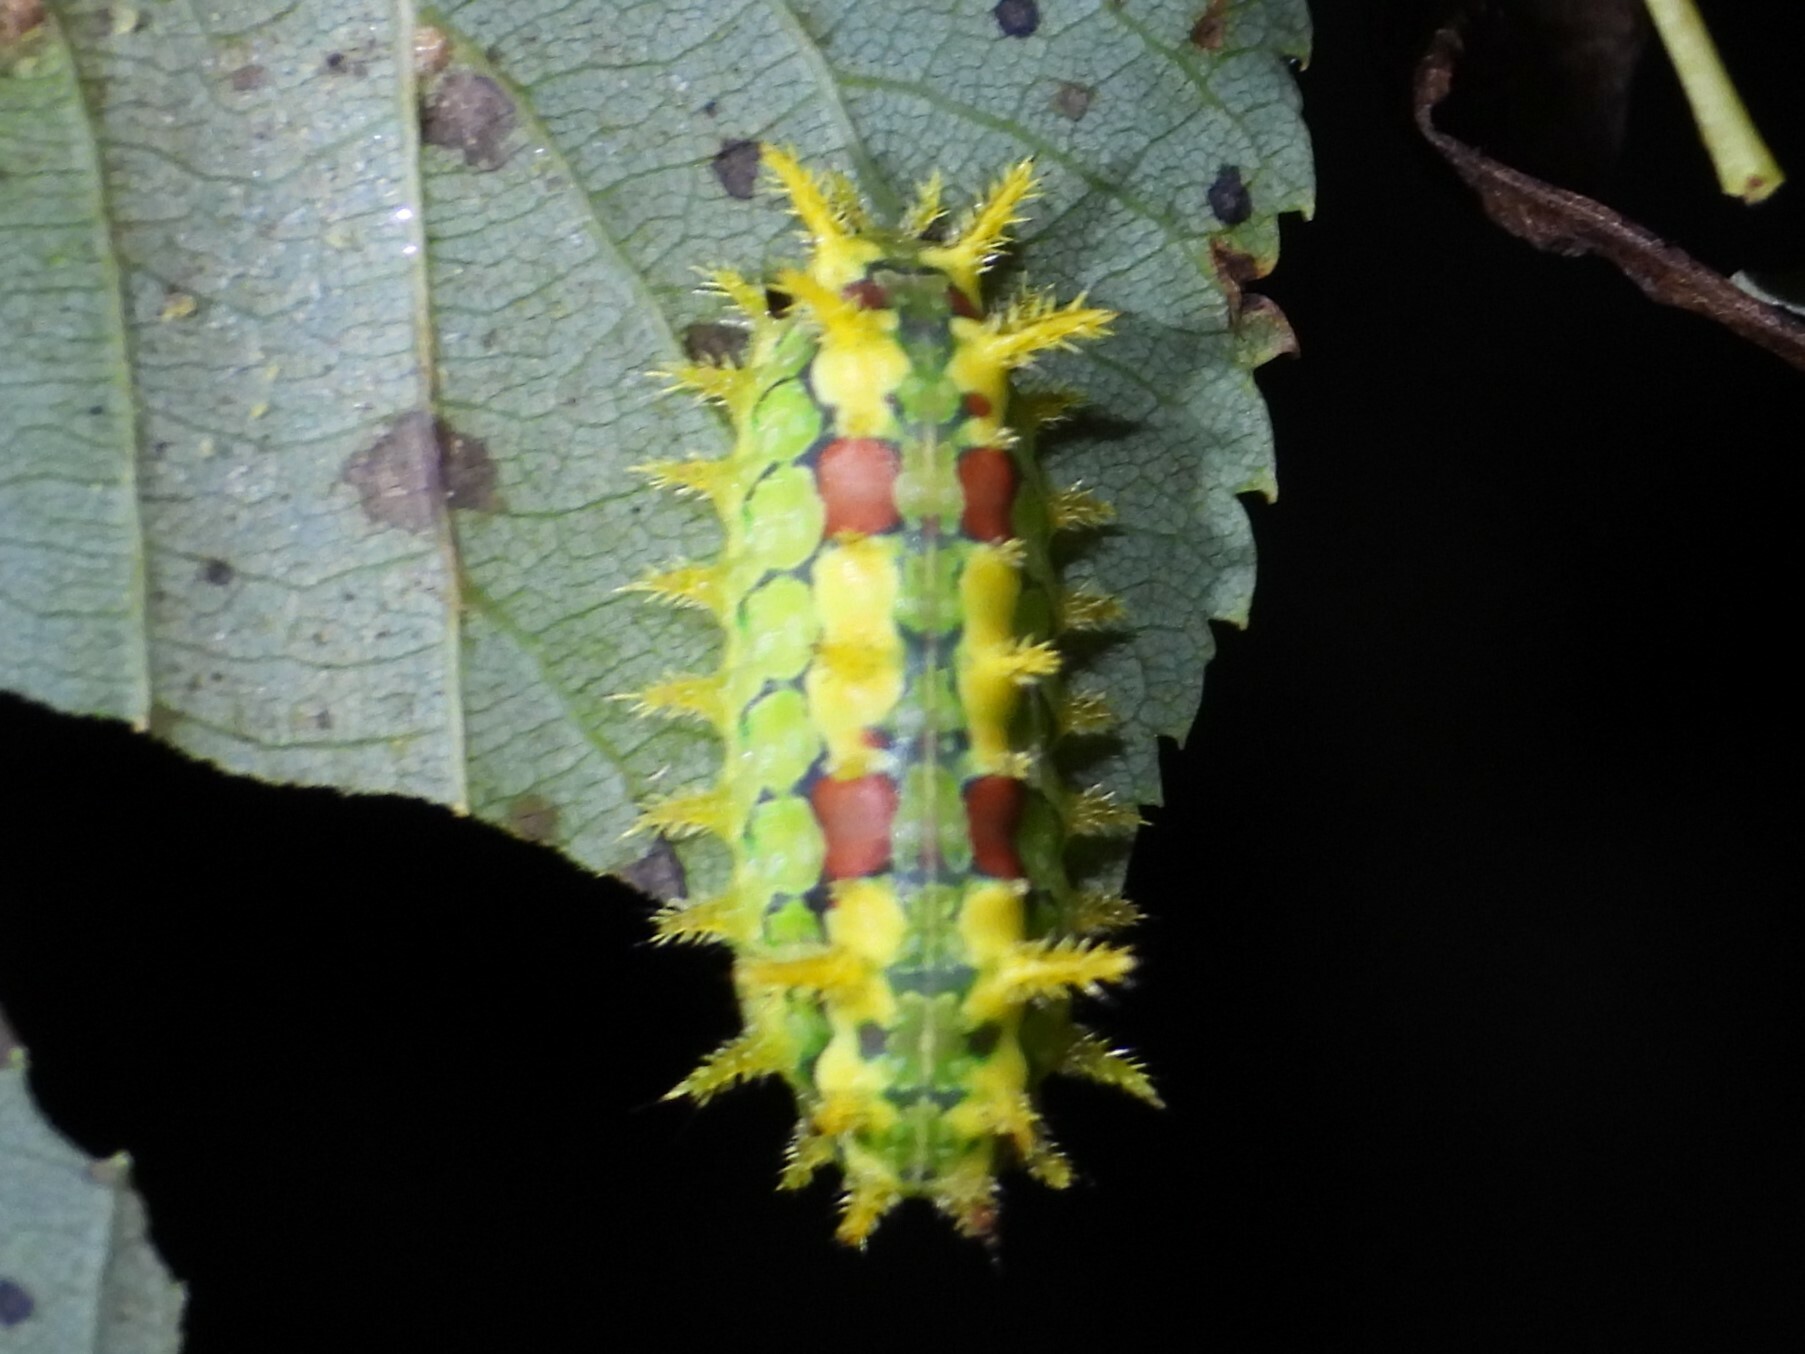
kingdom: Animalia
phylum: Arthropoda
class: Insecta
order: Lepidoptera
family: Limacodidae
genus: Euclea
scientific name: Euclea delphinii
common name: Spiny oak-slug moth
